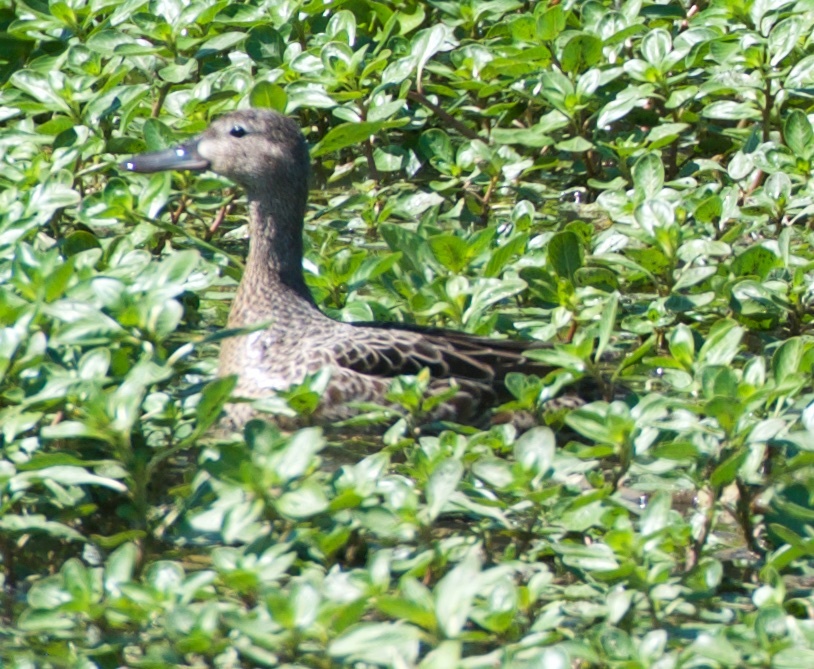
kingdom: Animalia
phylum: Chordata
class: Aves
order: Anseriformes
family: Anatidae
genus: Spatula
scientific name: Spatula cyanoptera
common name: Cinnamon teal
